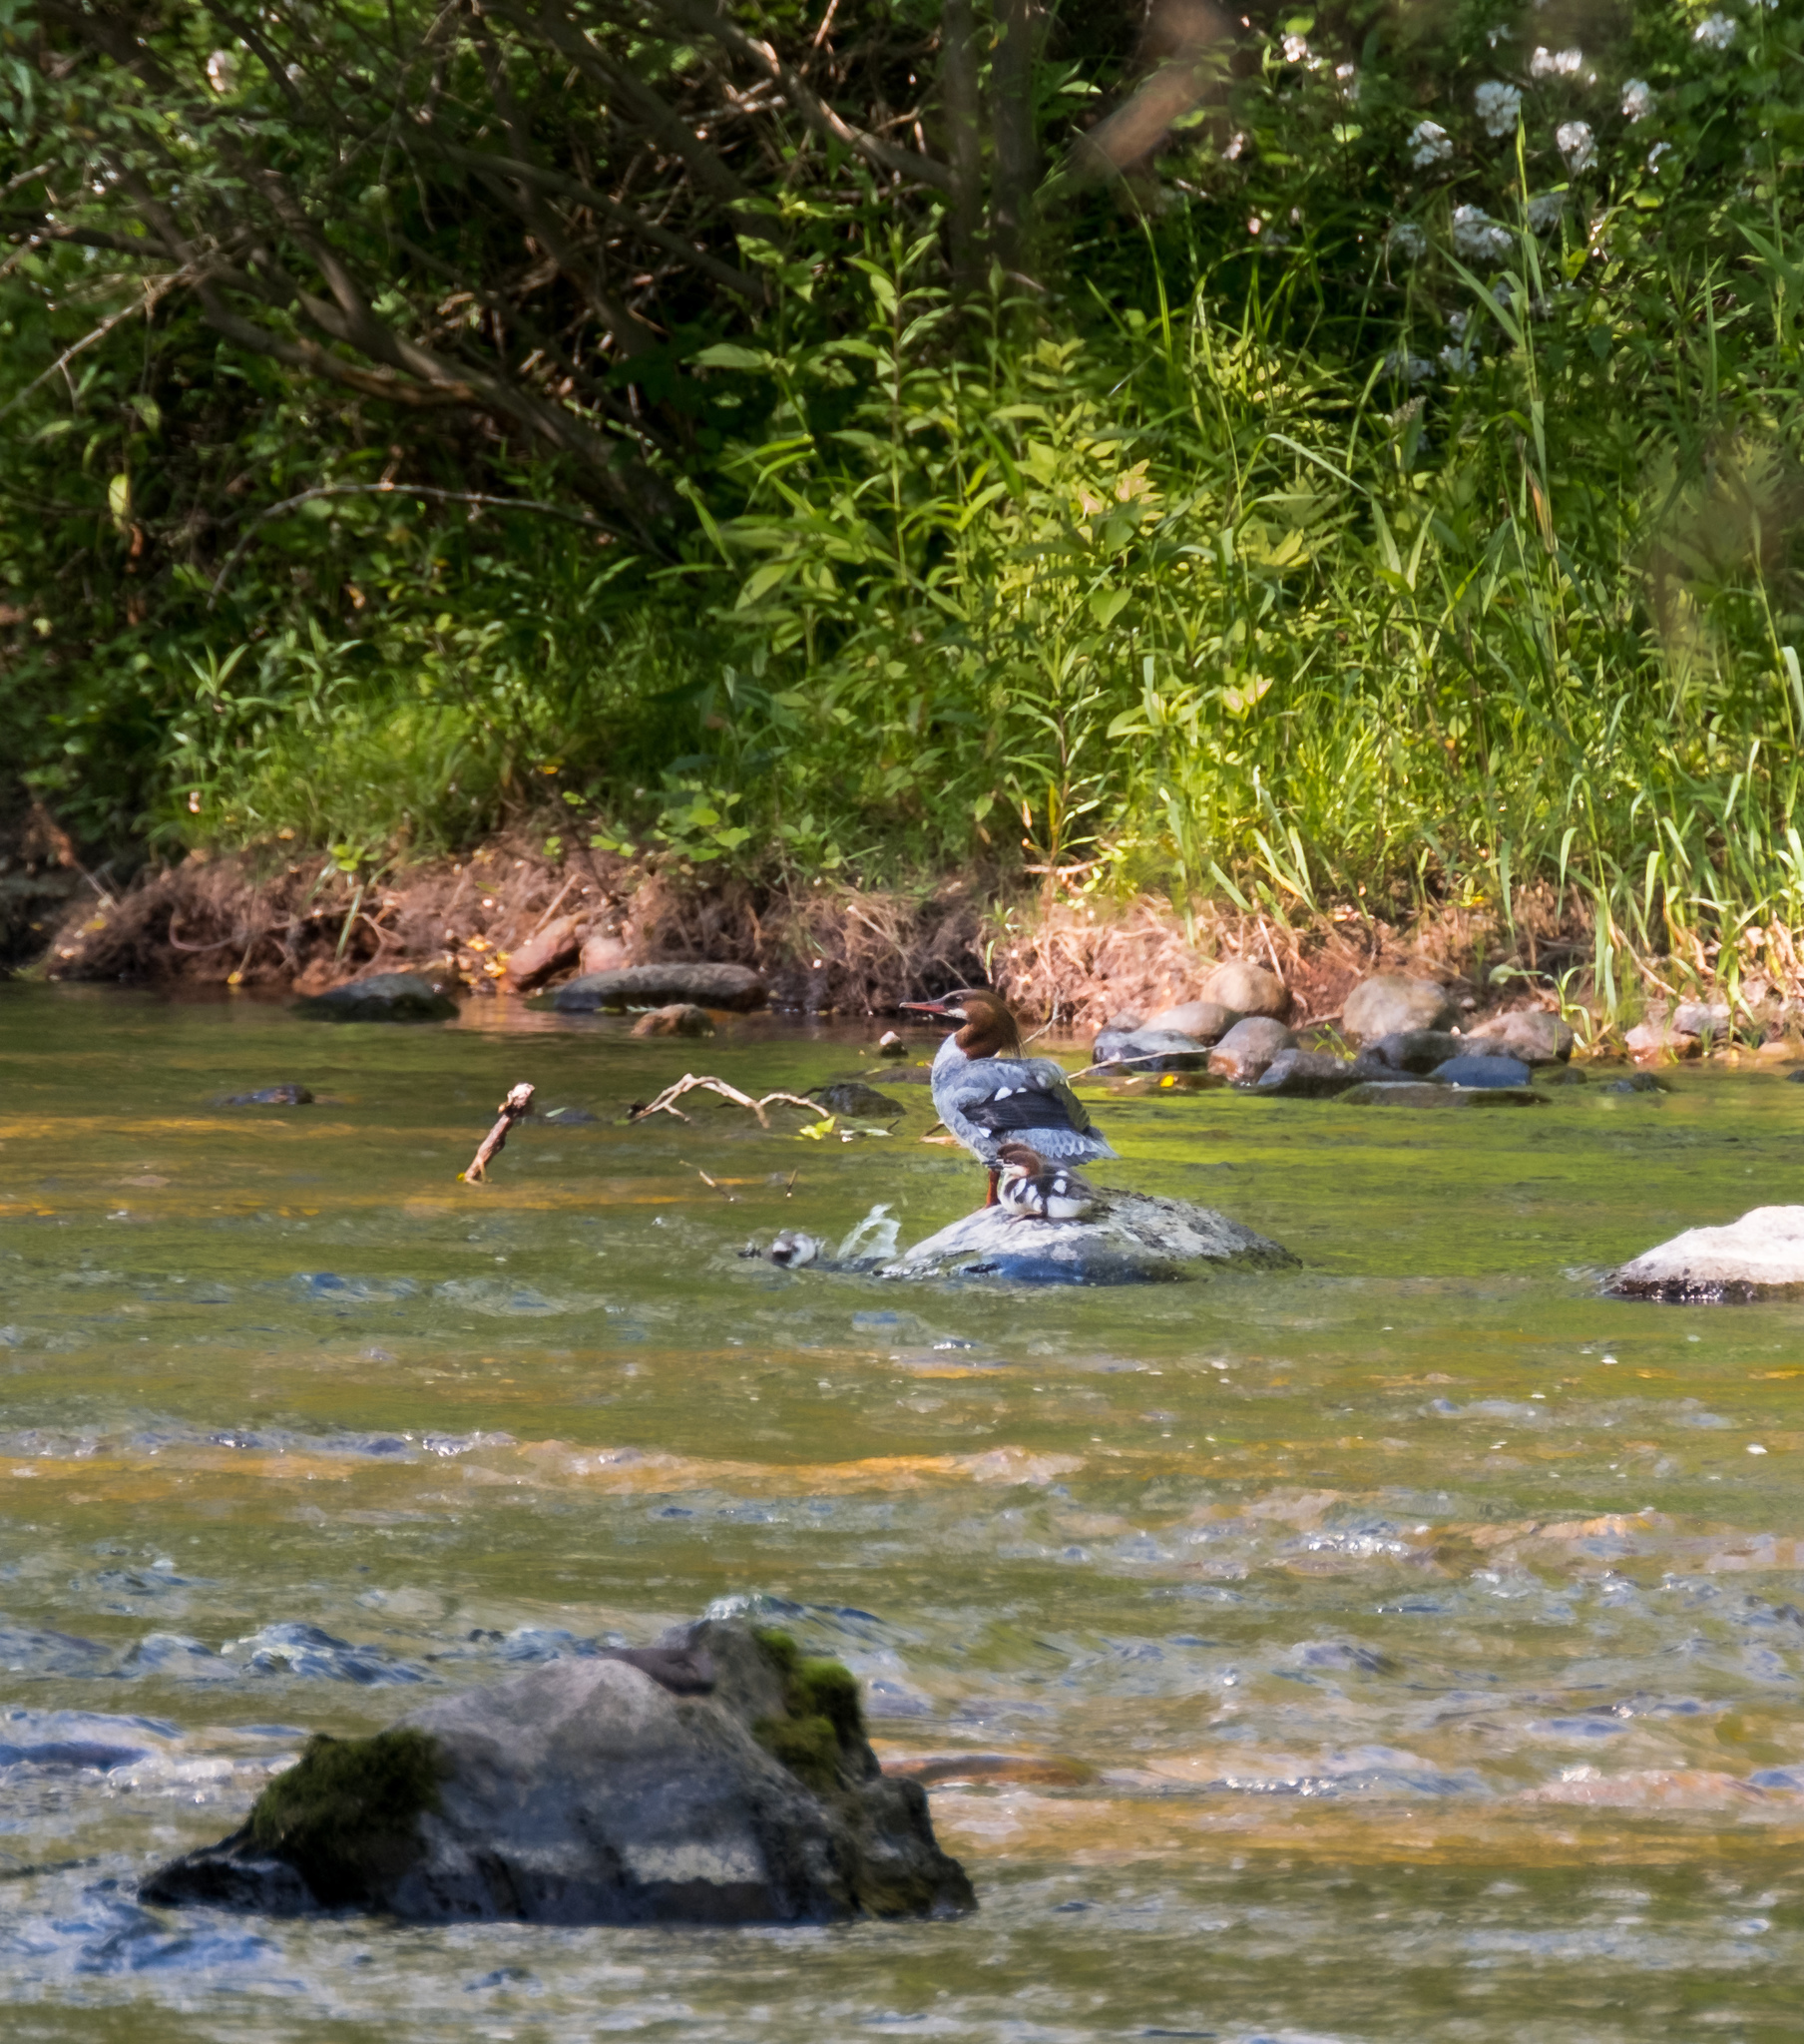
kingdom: Animalia
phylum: Chordata
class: Aves
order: Anseriformes
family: Anatidae
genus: Mergus
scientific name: Mergus merganser
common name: Common merganser
